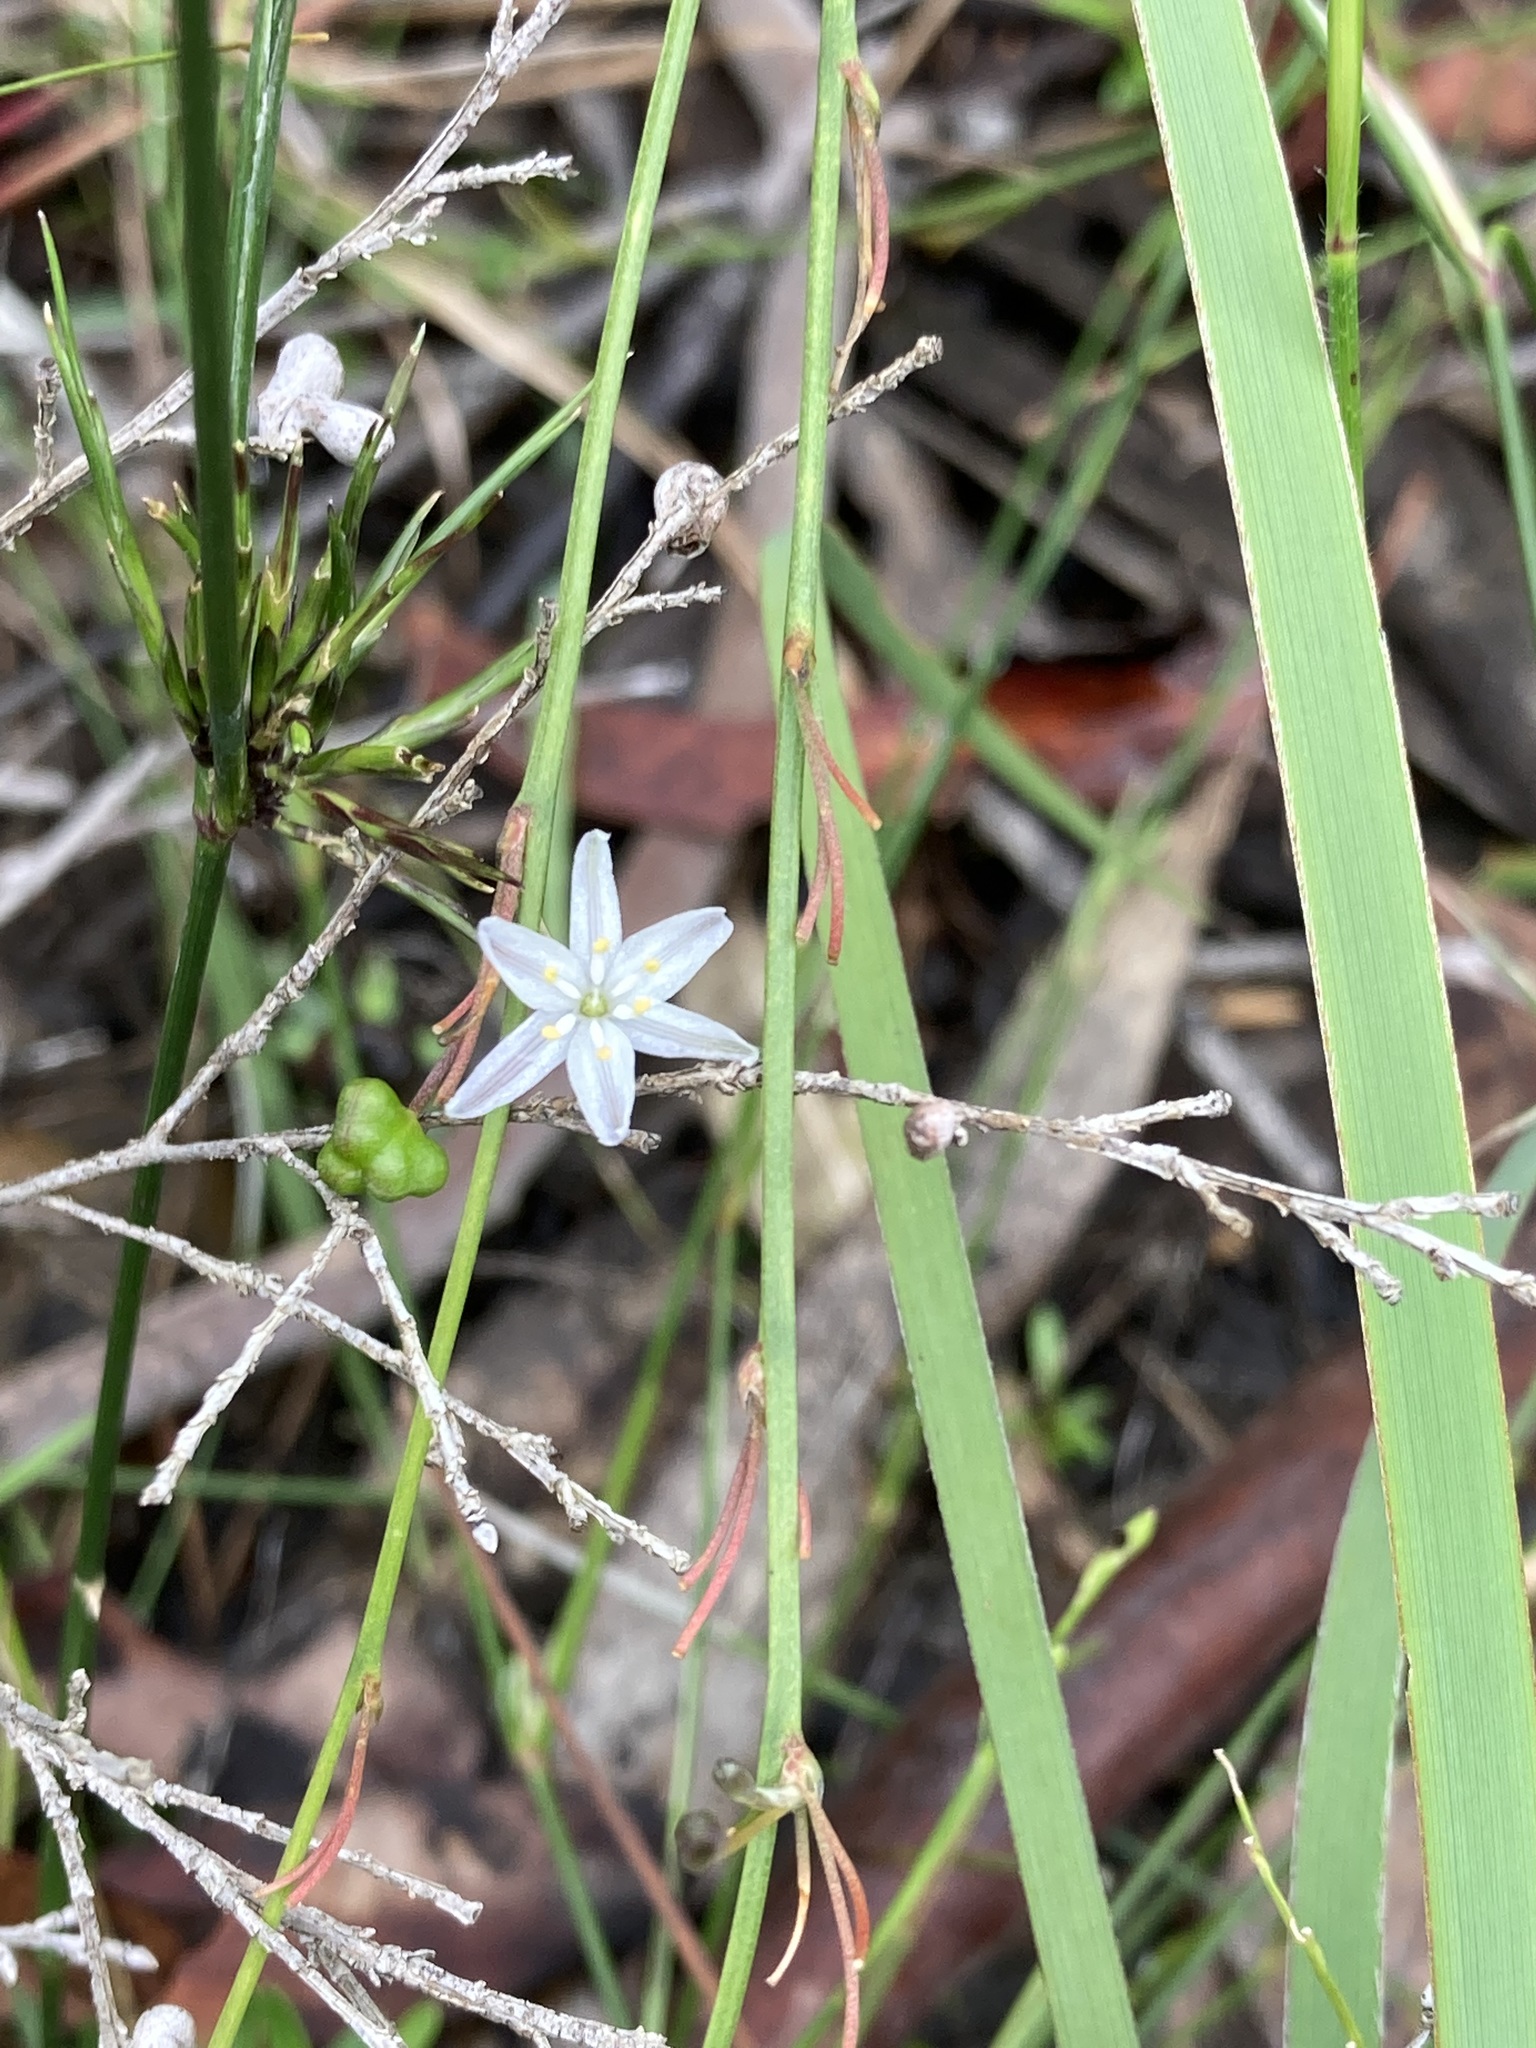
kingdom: Plantae
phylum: Tracheophyta
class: Liliopsida
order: Asparagales
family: Asphodelaceae
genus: Caesia
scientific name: Caesia parviflora
